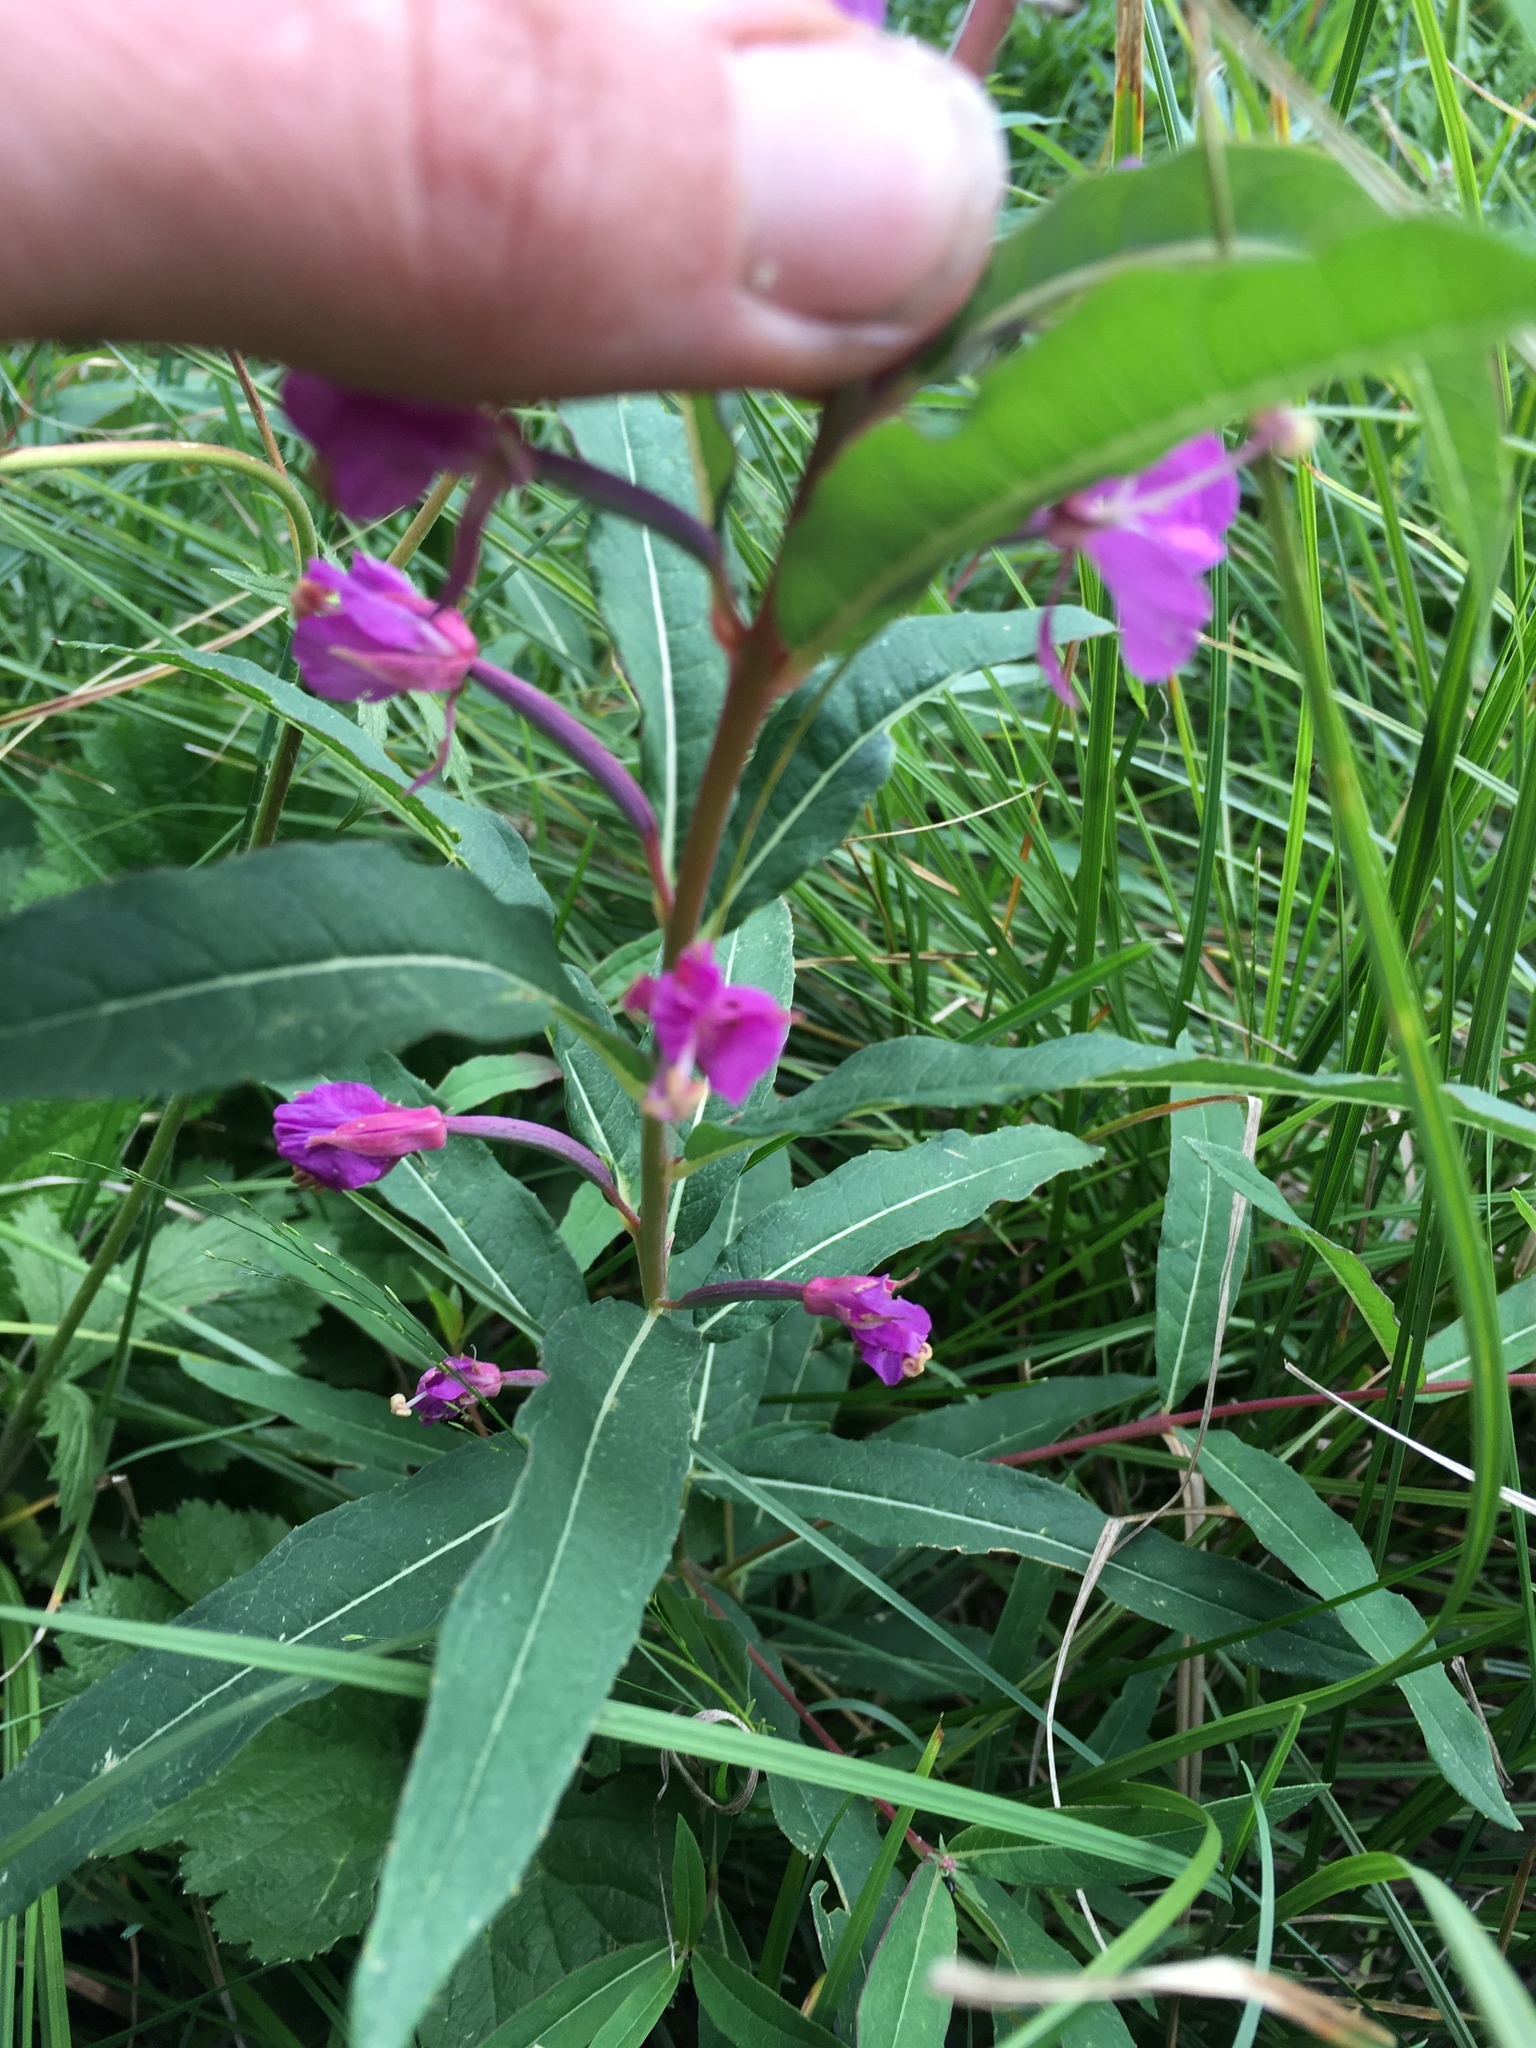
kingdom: Plantae
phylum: Tracheophyta
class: Magnoliopsida
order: Myrtales
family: Onagraceae
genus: Chamaenerion
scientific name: Chamaenerion angustifolium
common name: Fireweed
